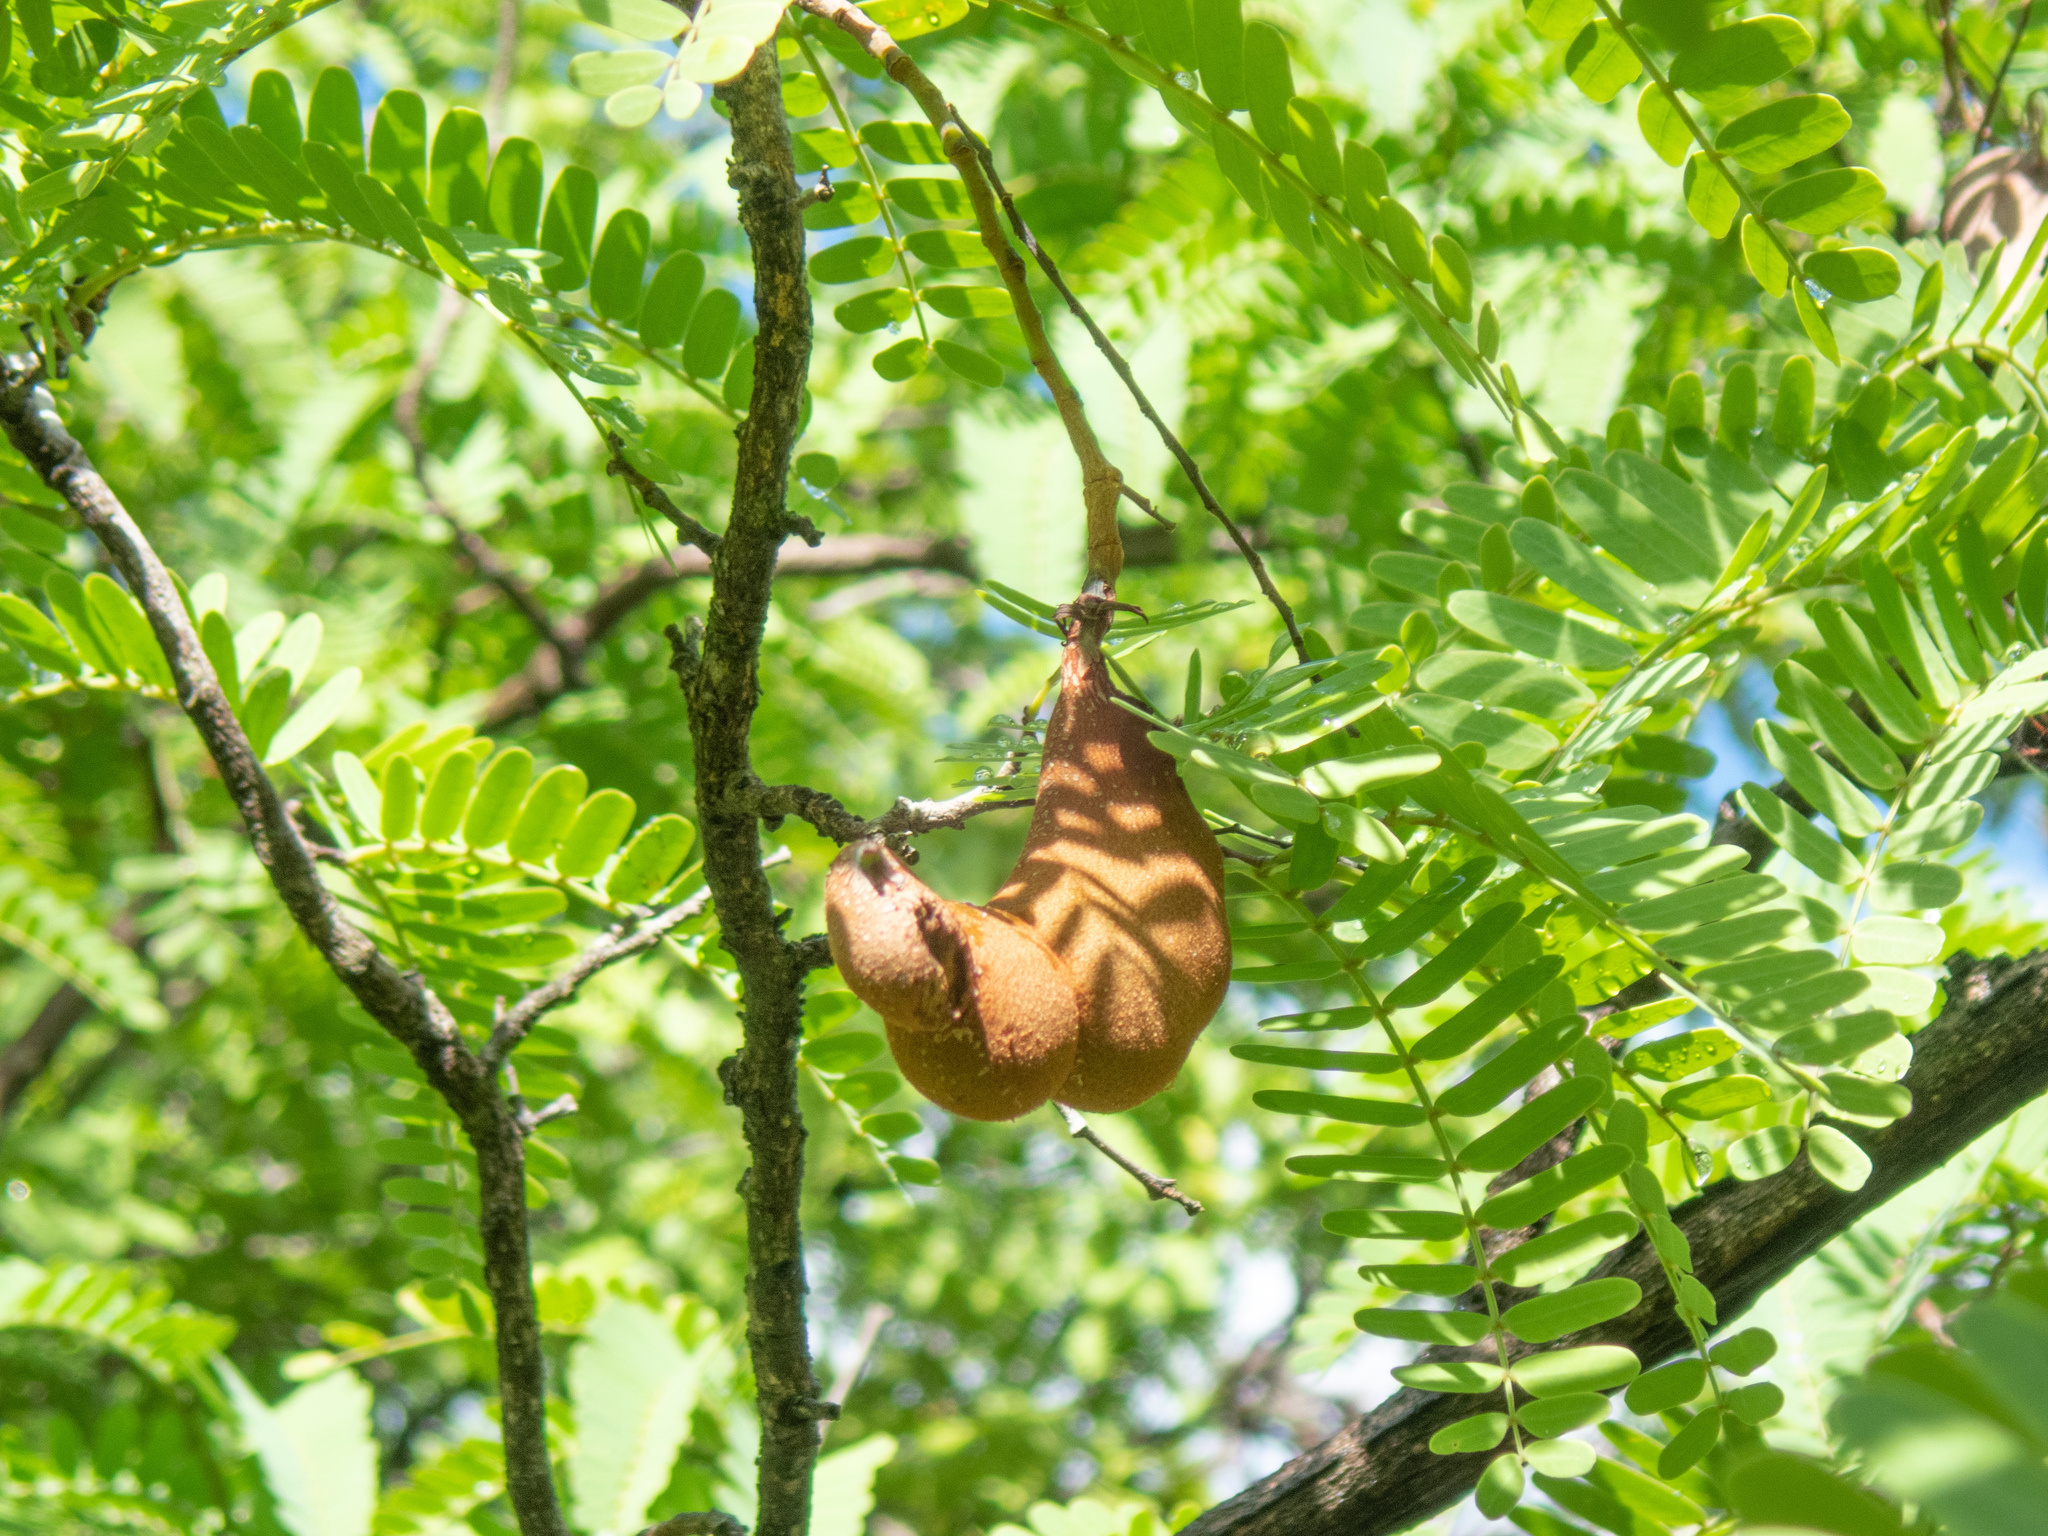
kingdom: Plantae
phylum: Tracheophyta
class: Magnoliopsida
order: Fabales
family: Fabaceae
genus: Tamarindus
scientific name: Tamarindus indica
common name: Tamarind
